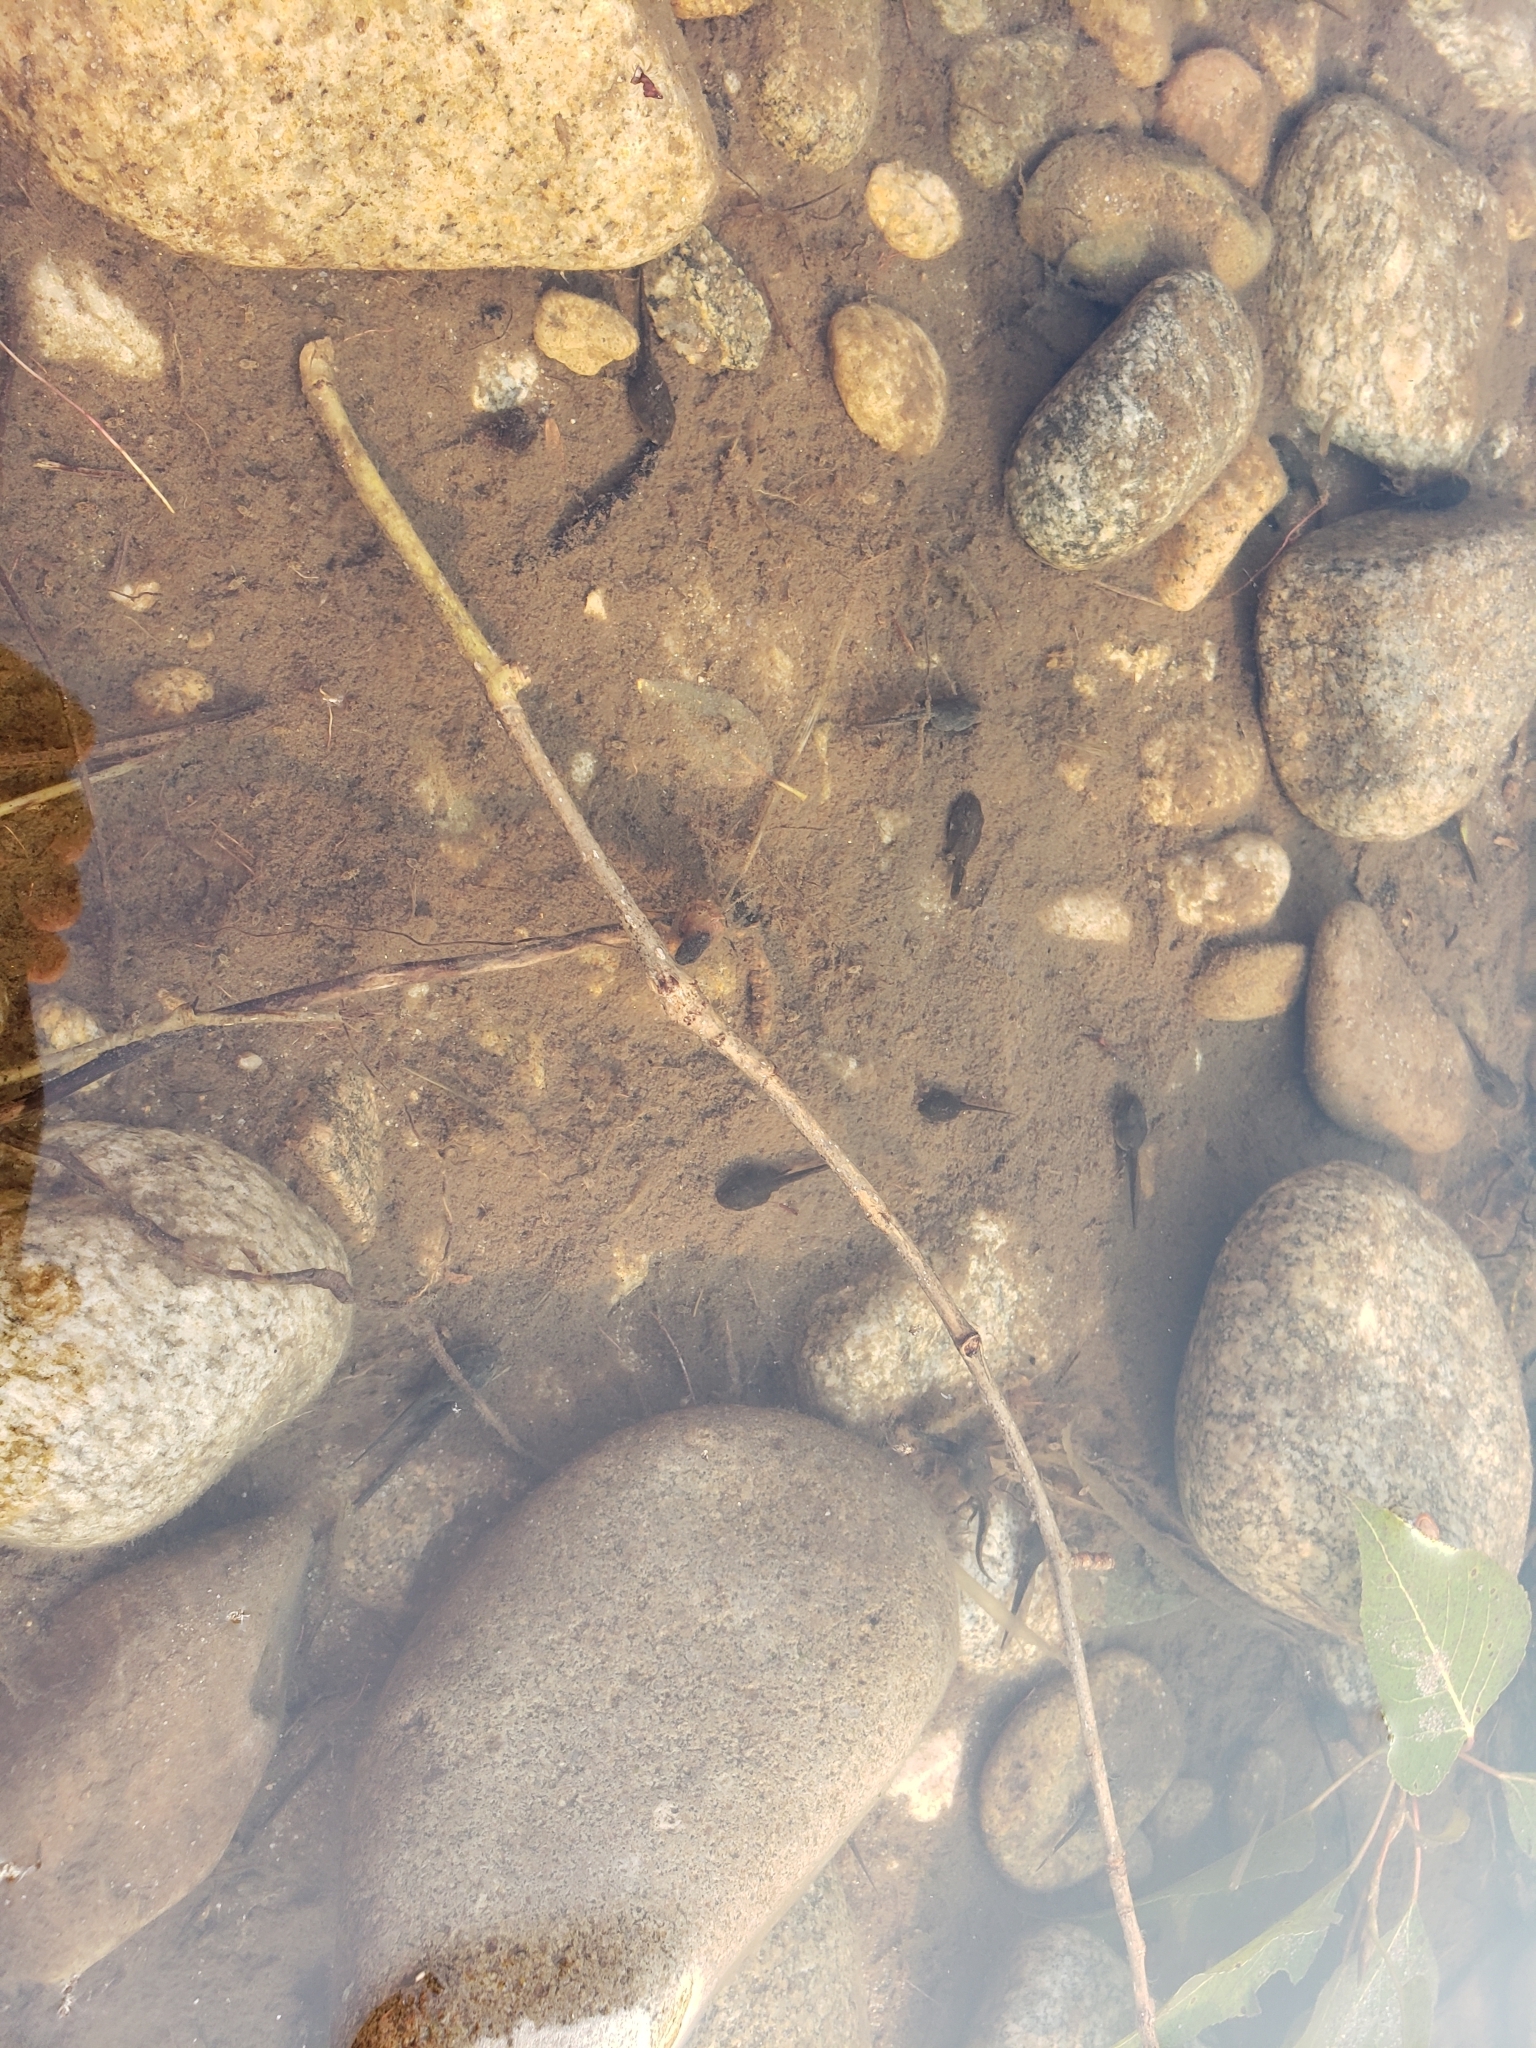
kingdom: Animalia
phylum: Chordata
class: Amphibia
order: Anura
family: Ranidae
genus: Rana
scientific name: Rana luteiventris
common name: Columbia spotted frog
